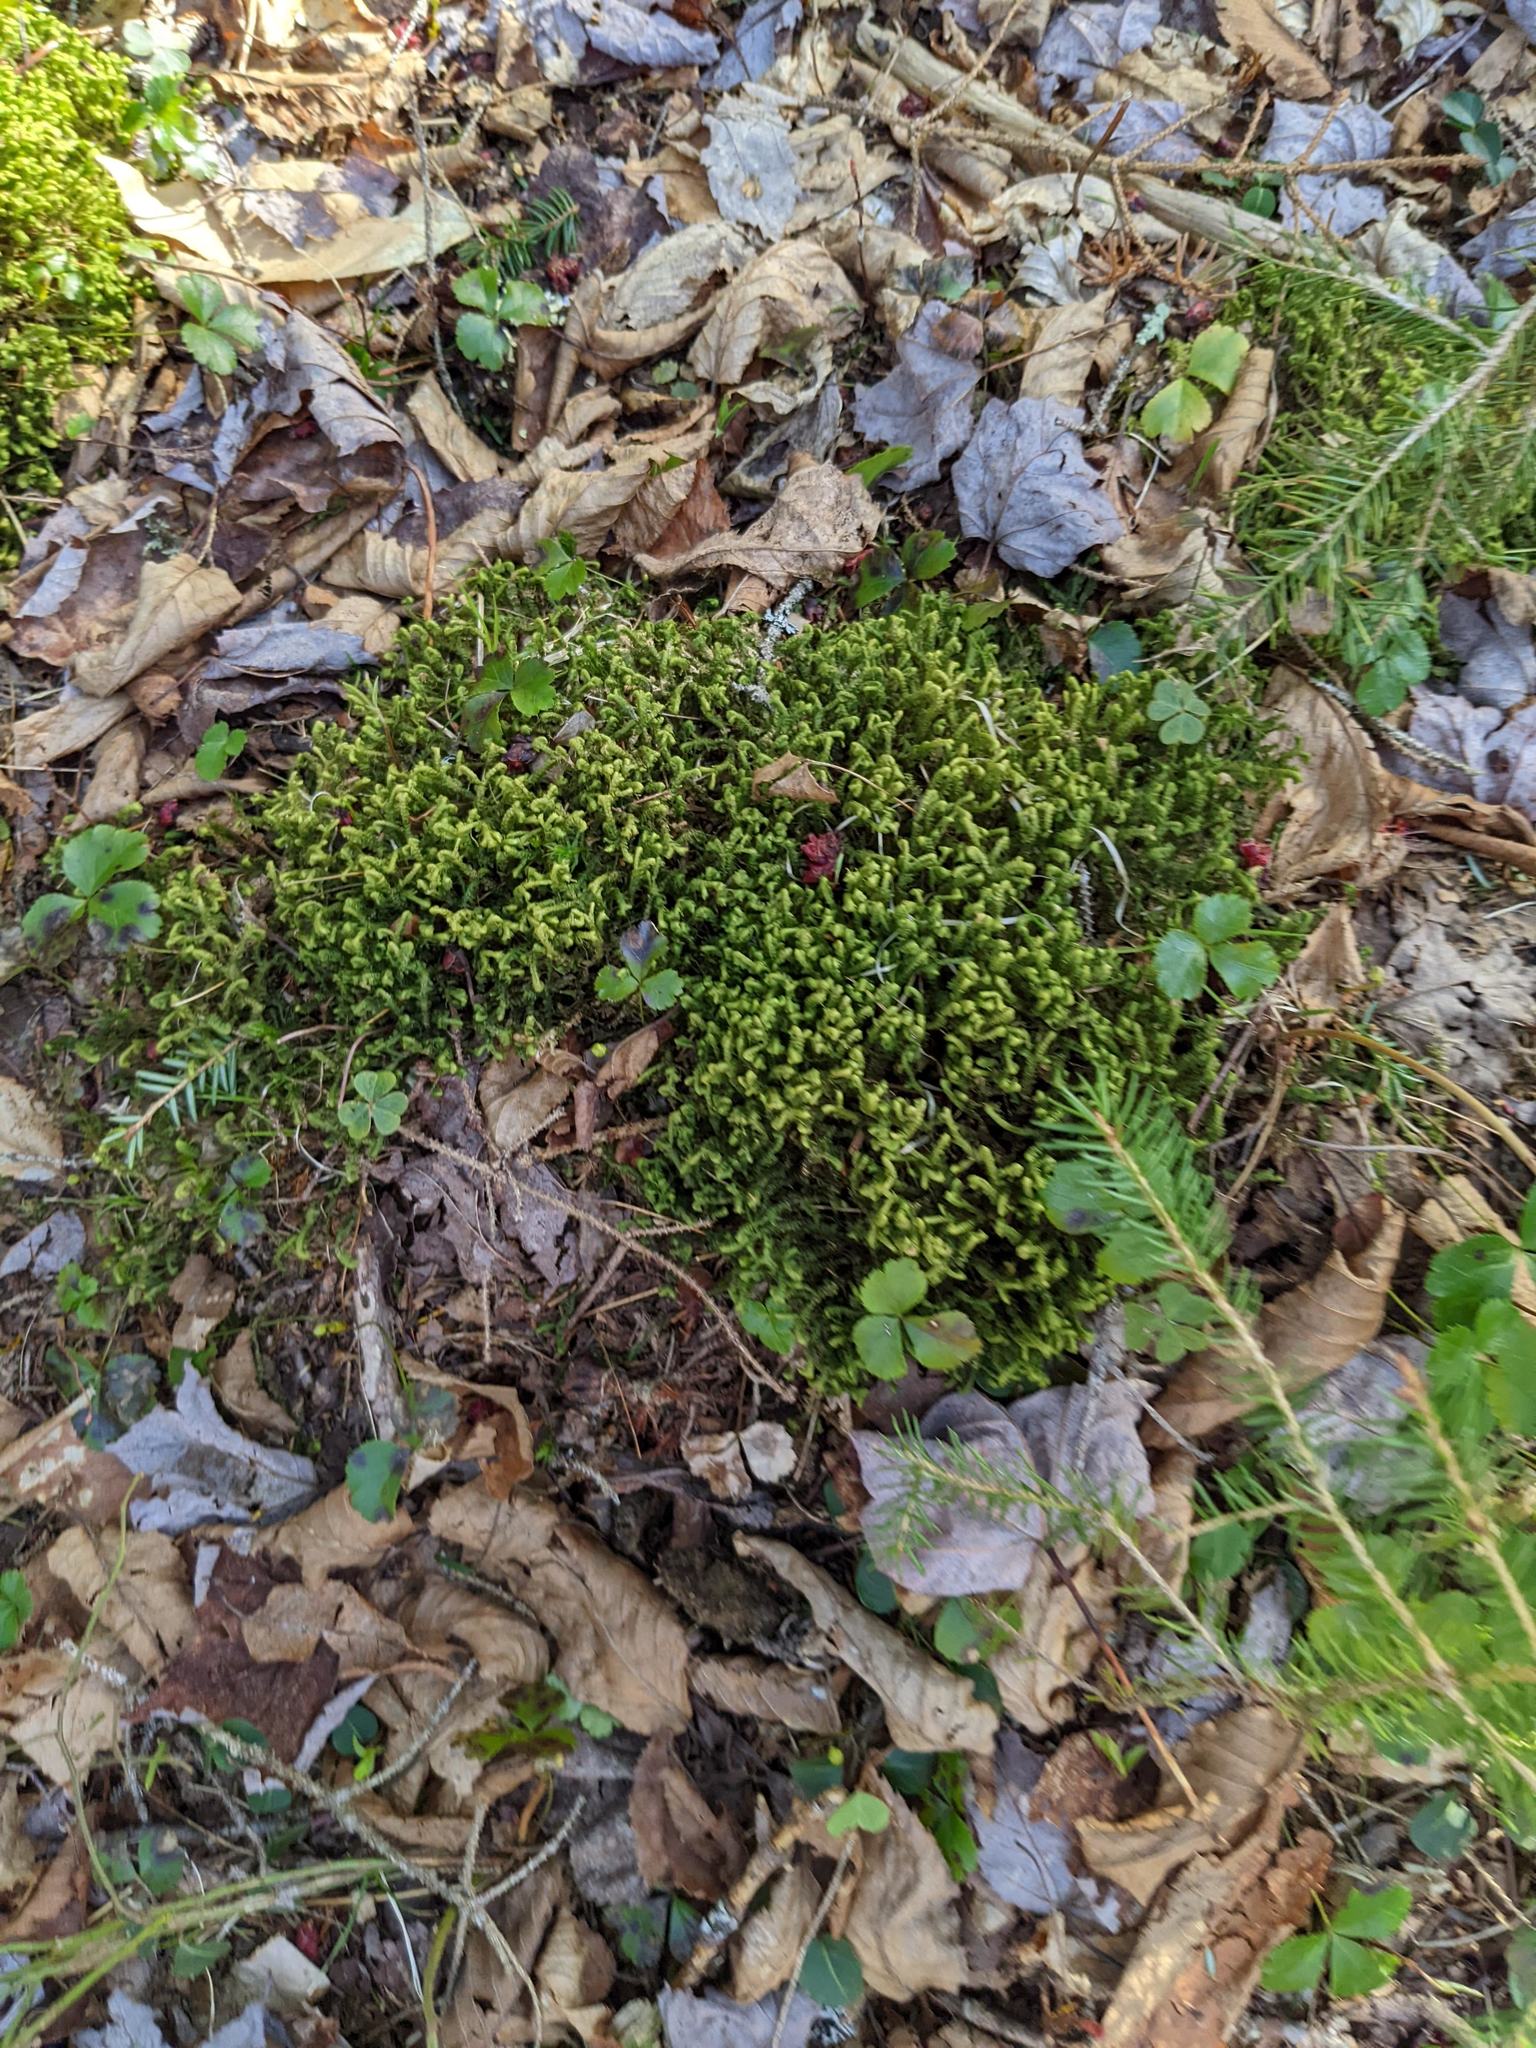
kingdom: Plantae
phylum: Tracheophyta
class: Magnoliopsida
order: Ranunculales
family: Ranunculaceae
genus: Coptis
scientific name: Coptis trifolia
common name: Canker-root
